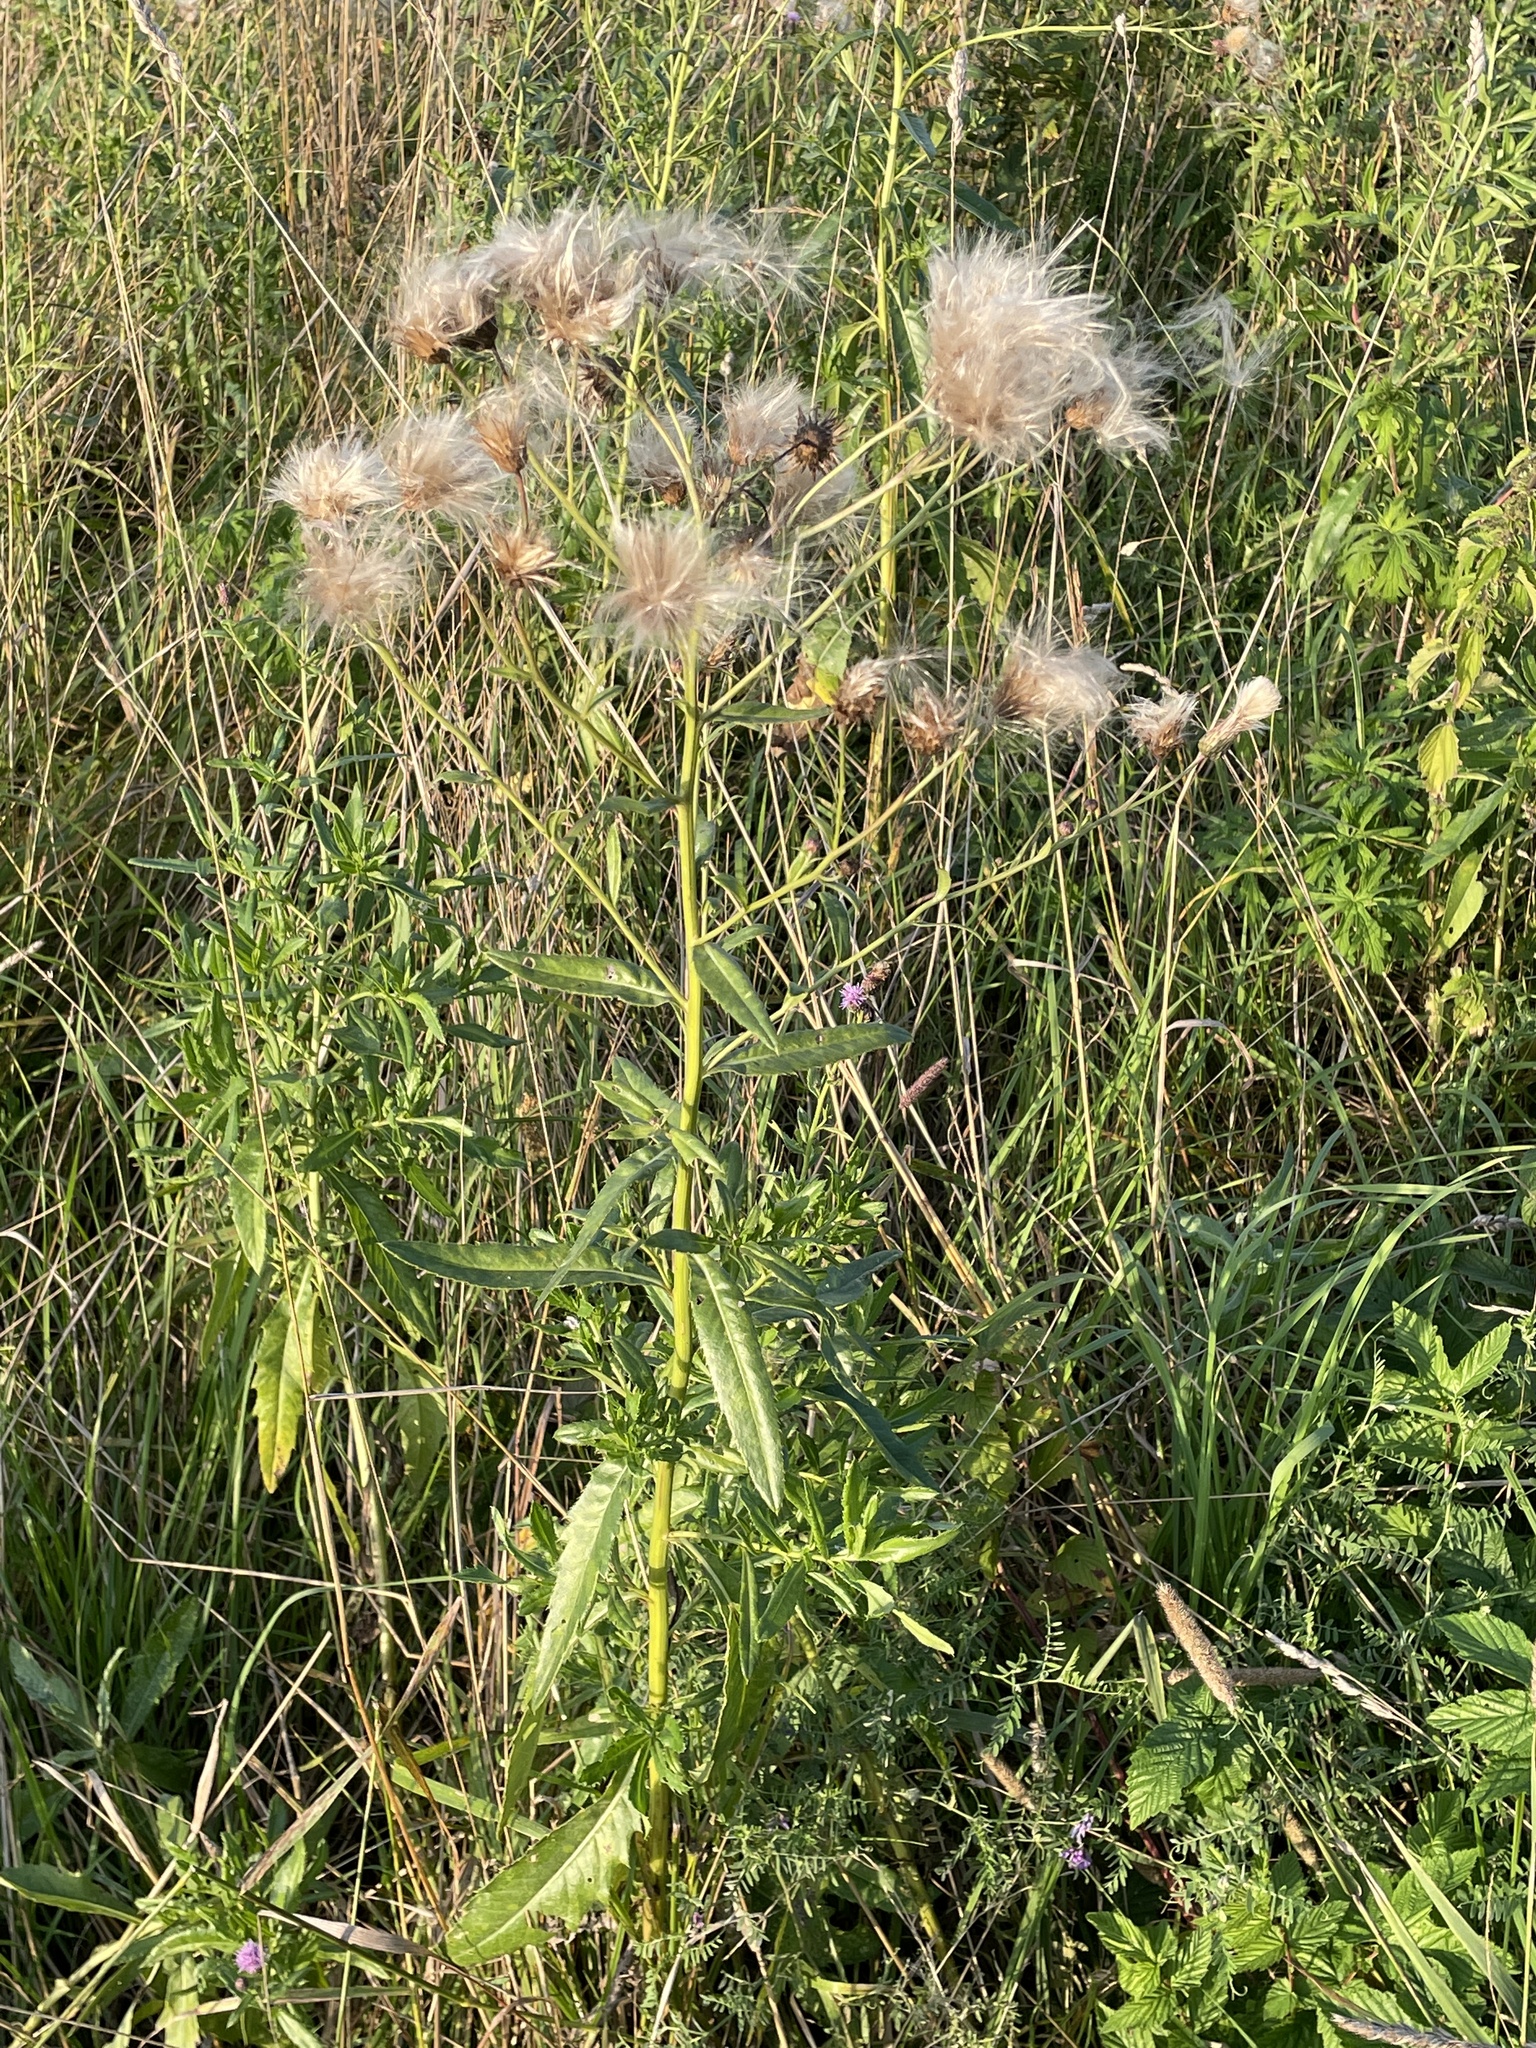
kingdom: Plantae
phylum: Tracheophyta
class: Magnoliopsida
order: Asterales
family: Asteraceae
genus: Cirsium
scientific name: Cirsium arvense
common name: Creeping thistle
